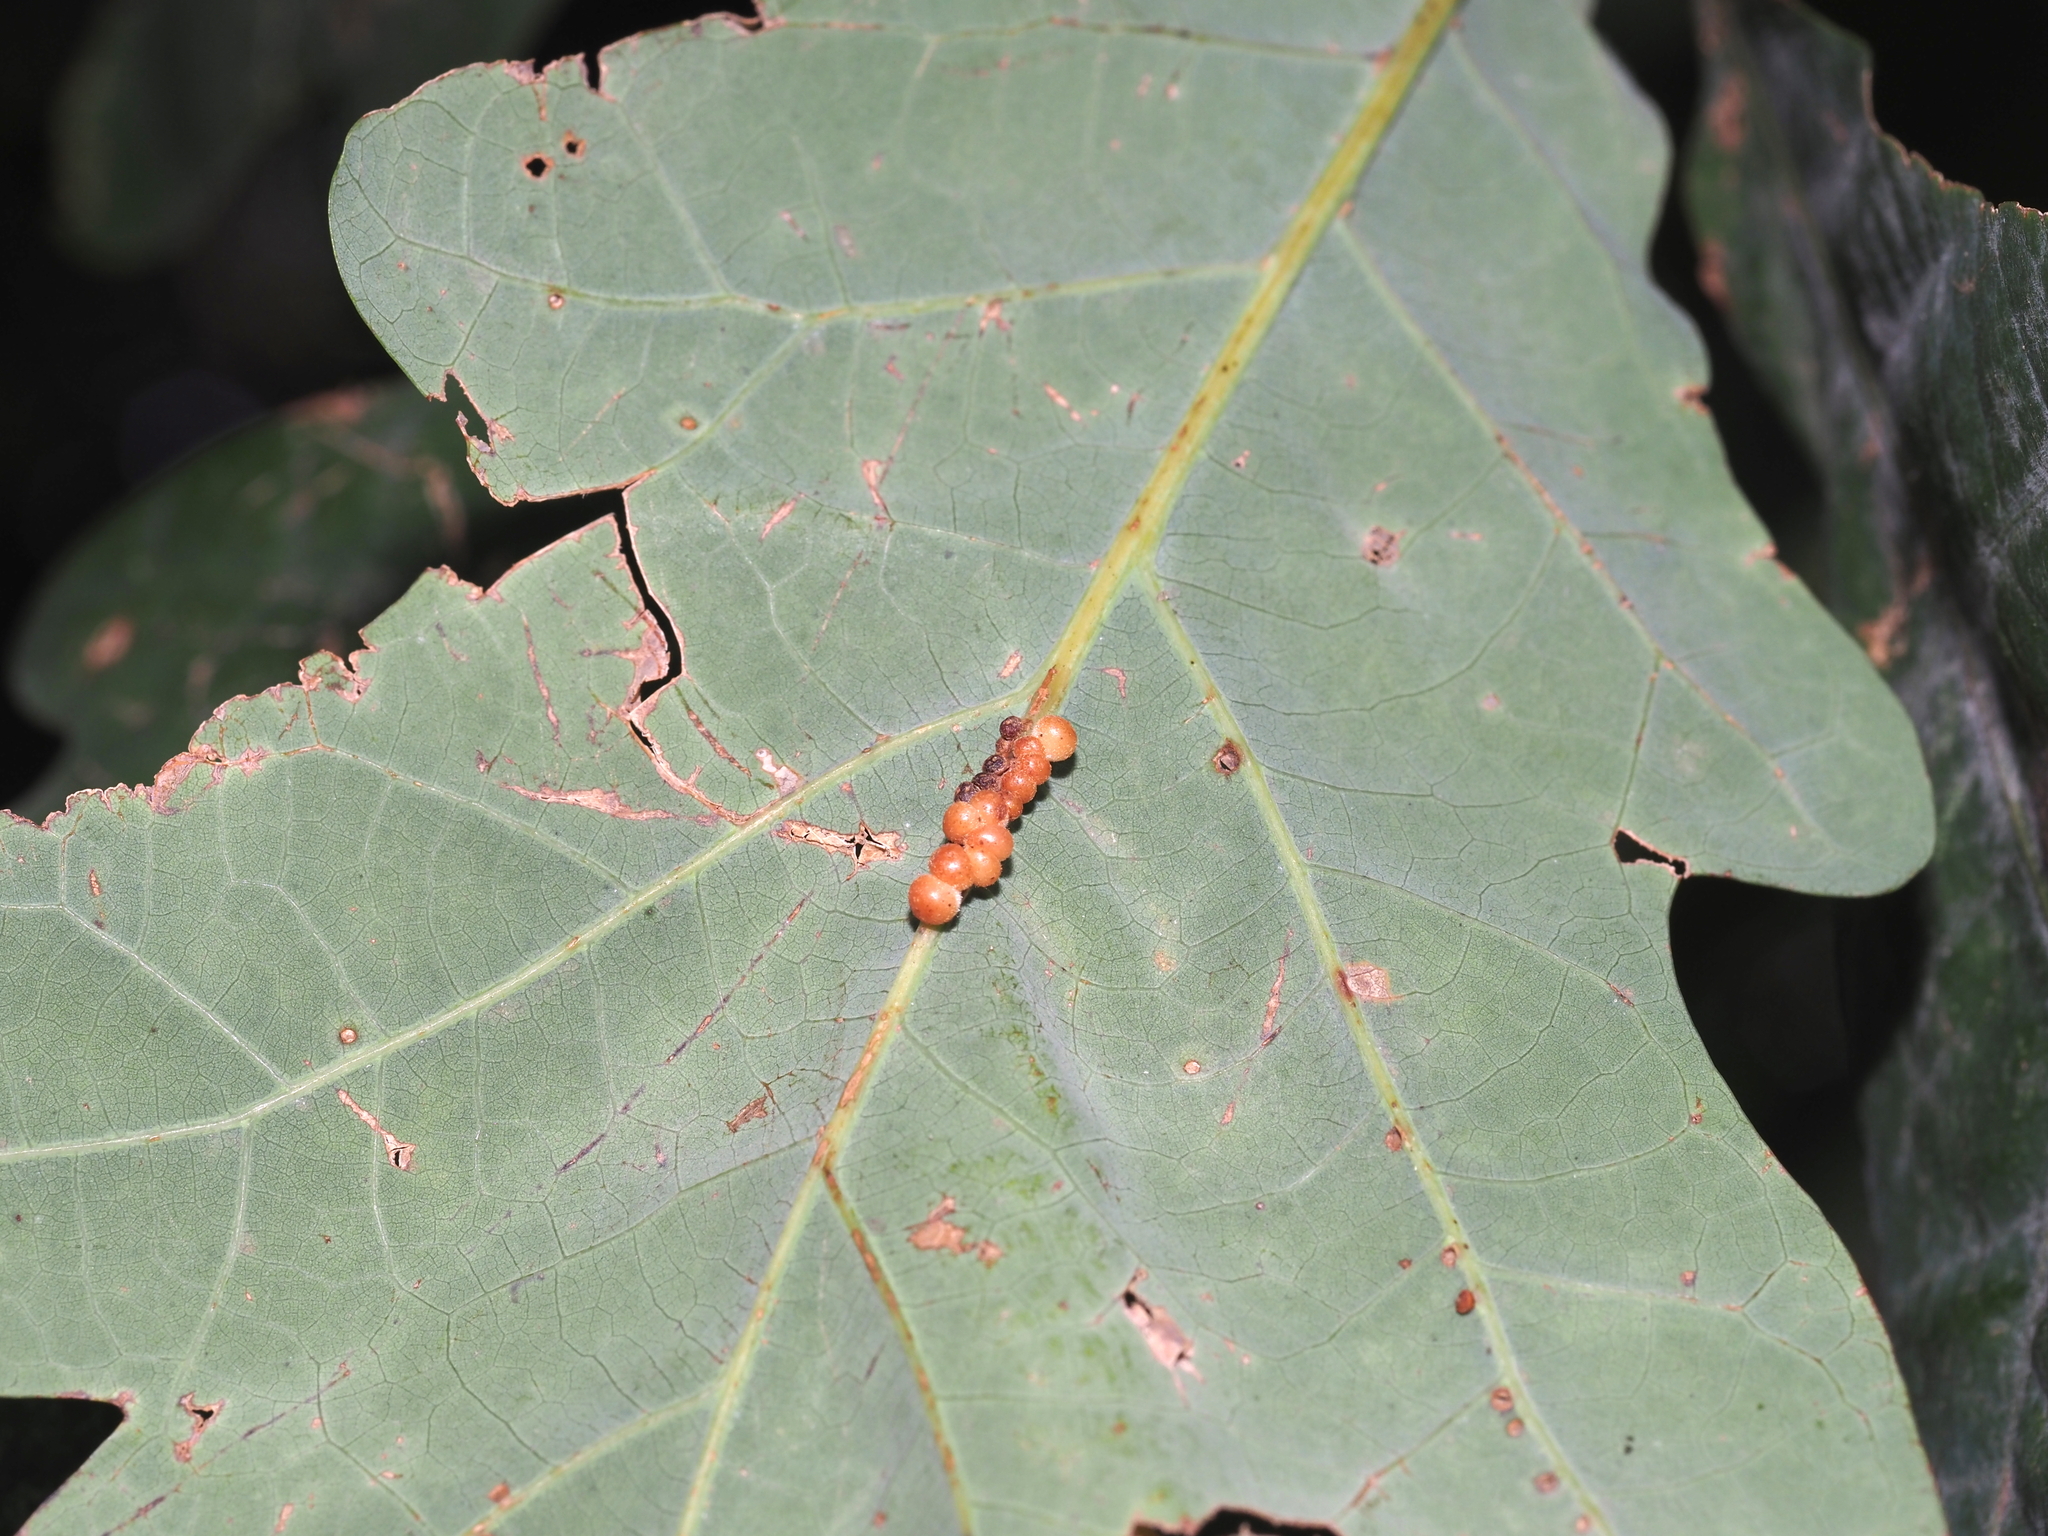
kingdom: Animalia
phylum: Arthropoda
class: Insecta
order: Hymenoptera
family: Cynipidae
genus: Andricus
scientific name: Andricus
